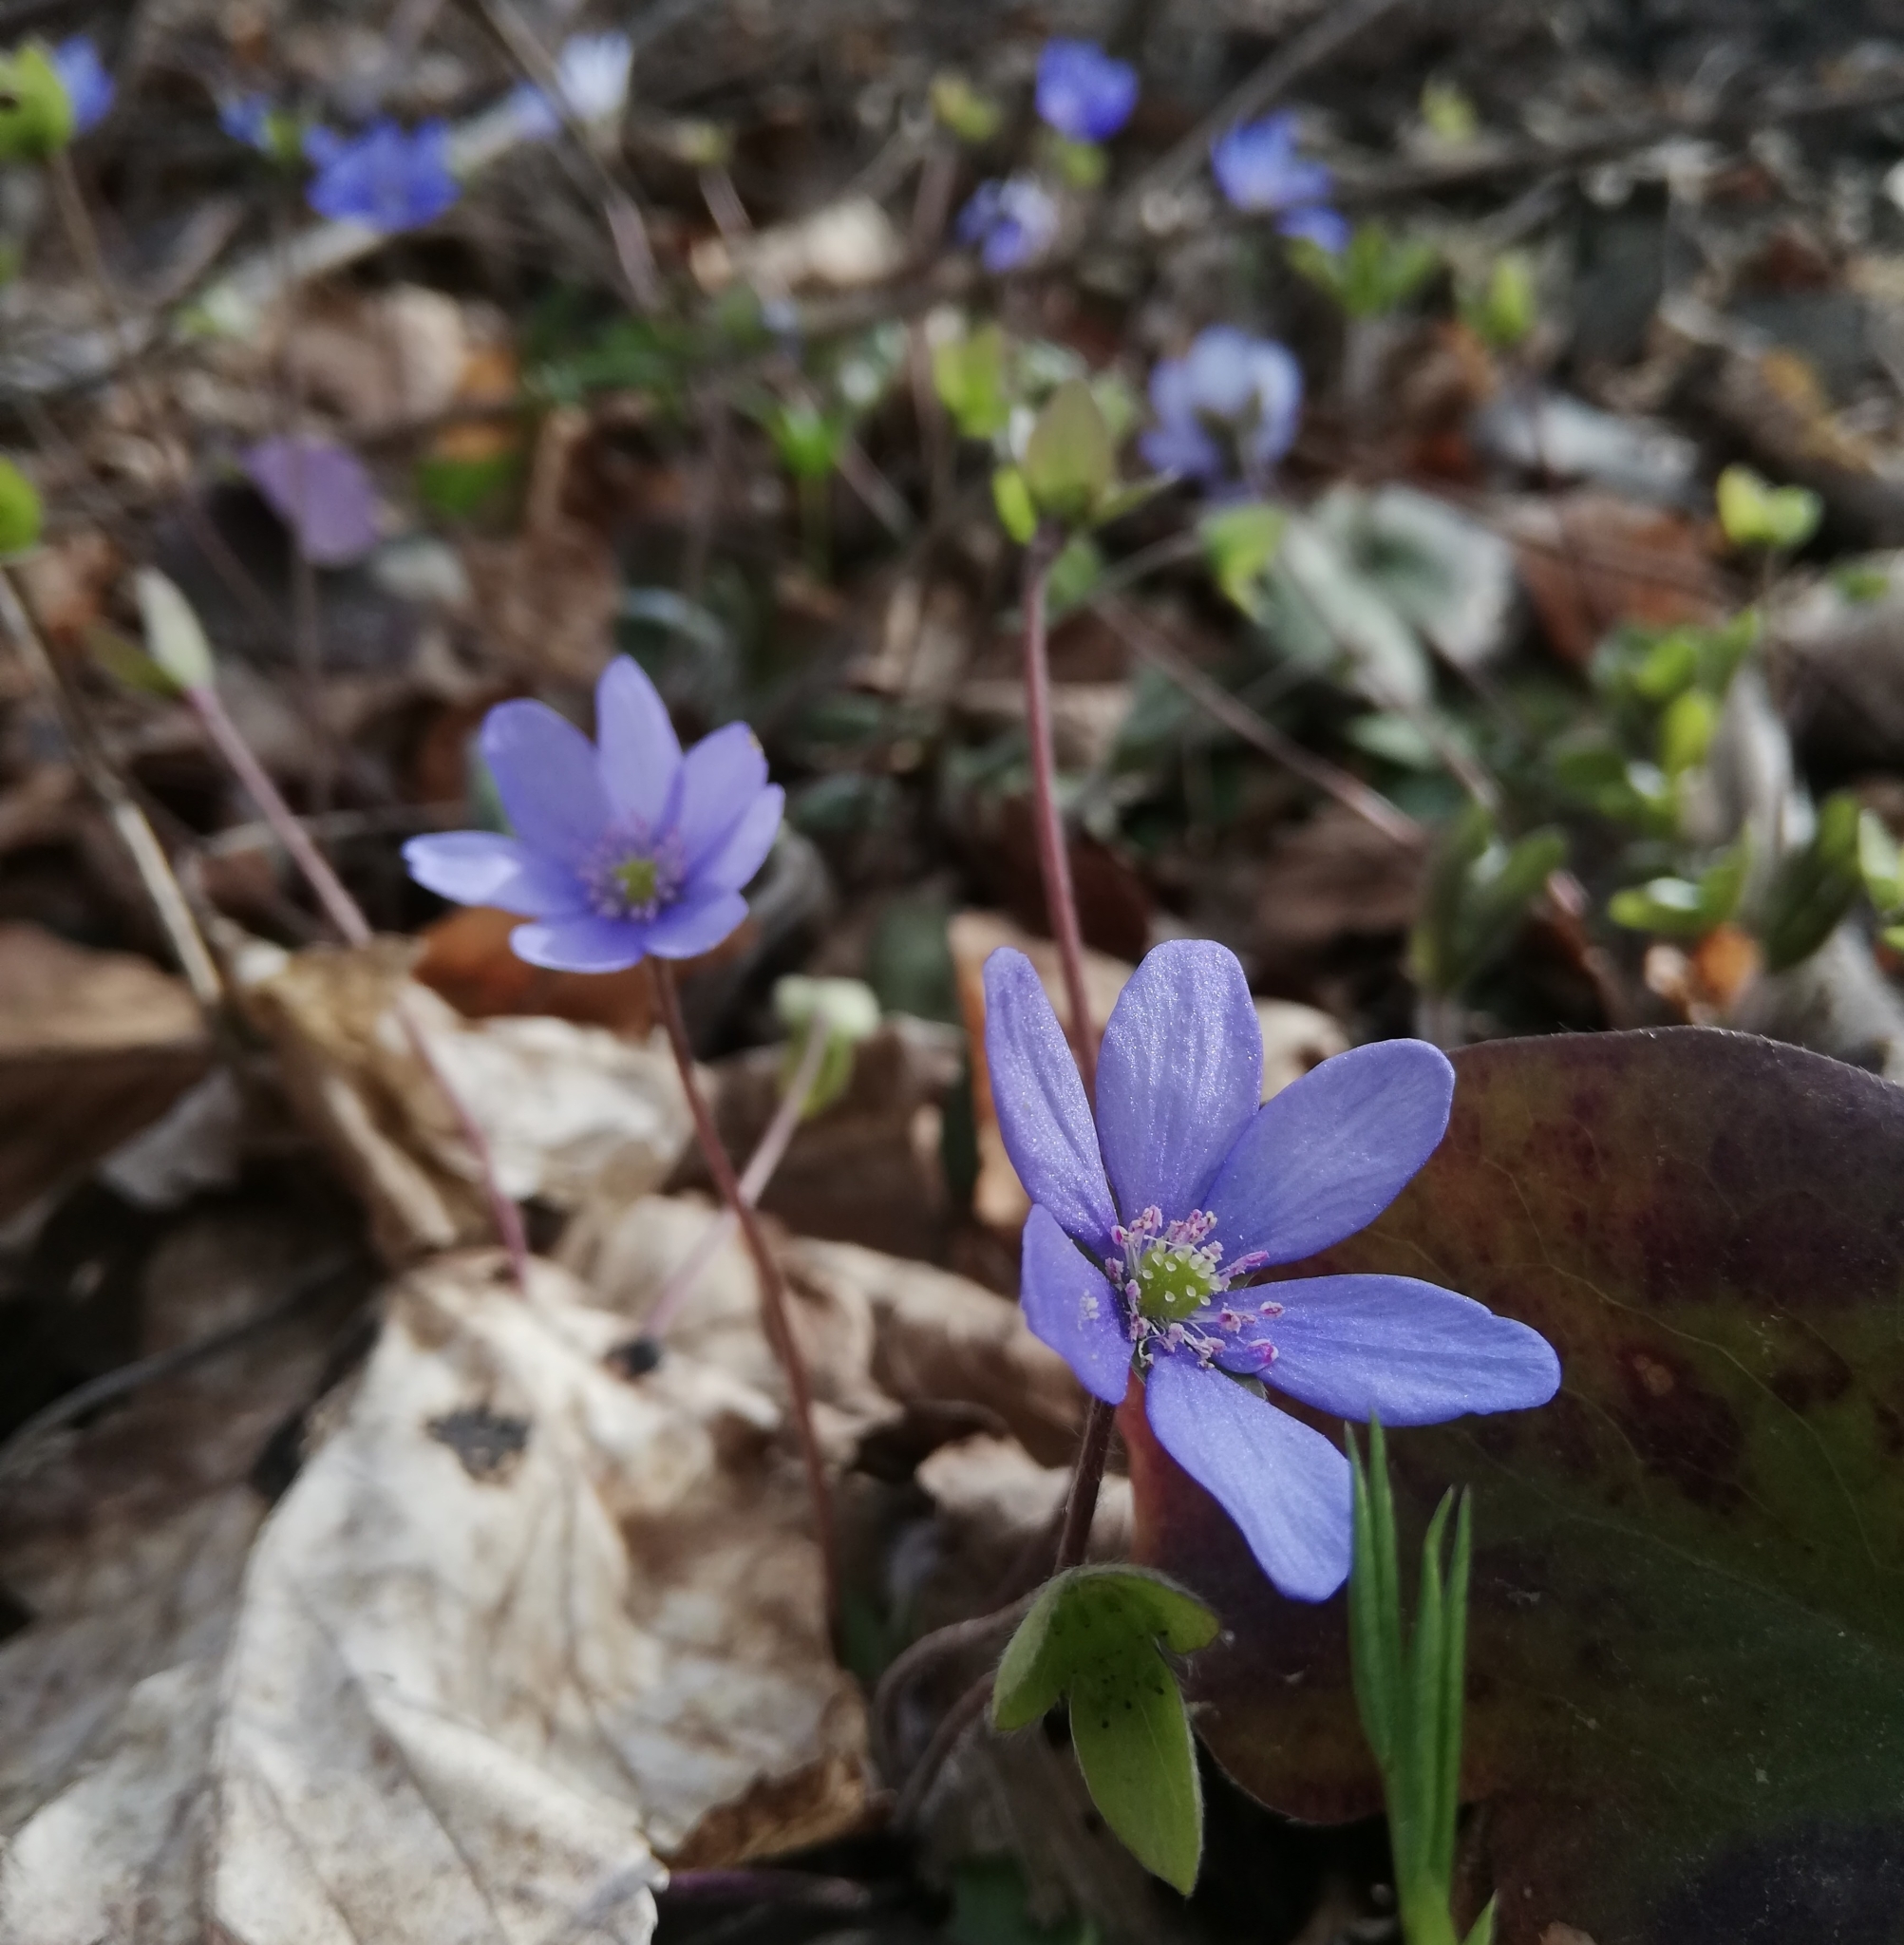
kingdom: Plantae
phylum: Tracheophyta
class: Magnoliopsida
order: Ranunculales
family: Ranunculaceae
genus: Hepatica
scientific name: Hepatica nobilis
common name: Liverleaf
